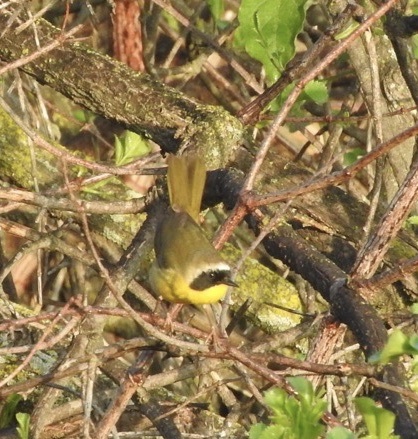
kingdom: Animalia
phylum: Chordata
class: Aves
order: Passeriformes
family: Parulidae
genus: Geothlypis
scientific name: Geothlypis trichas
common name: Common yellowthroat
